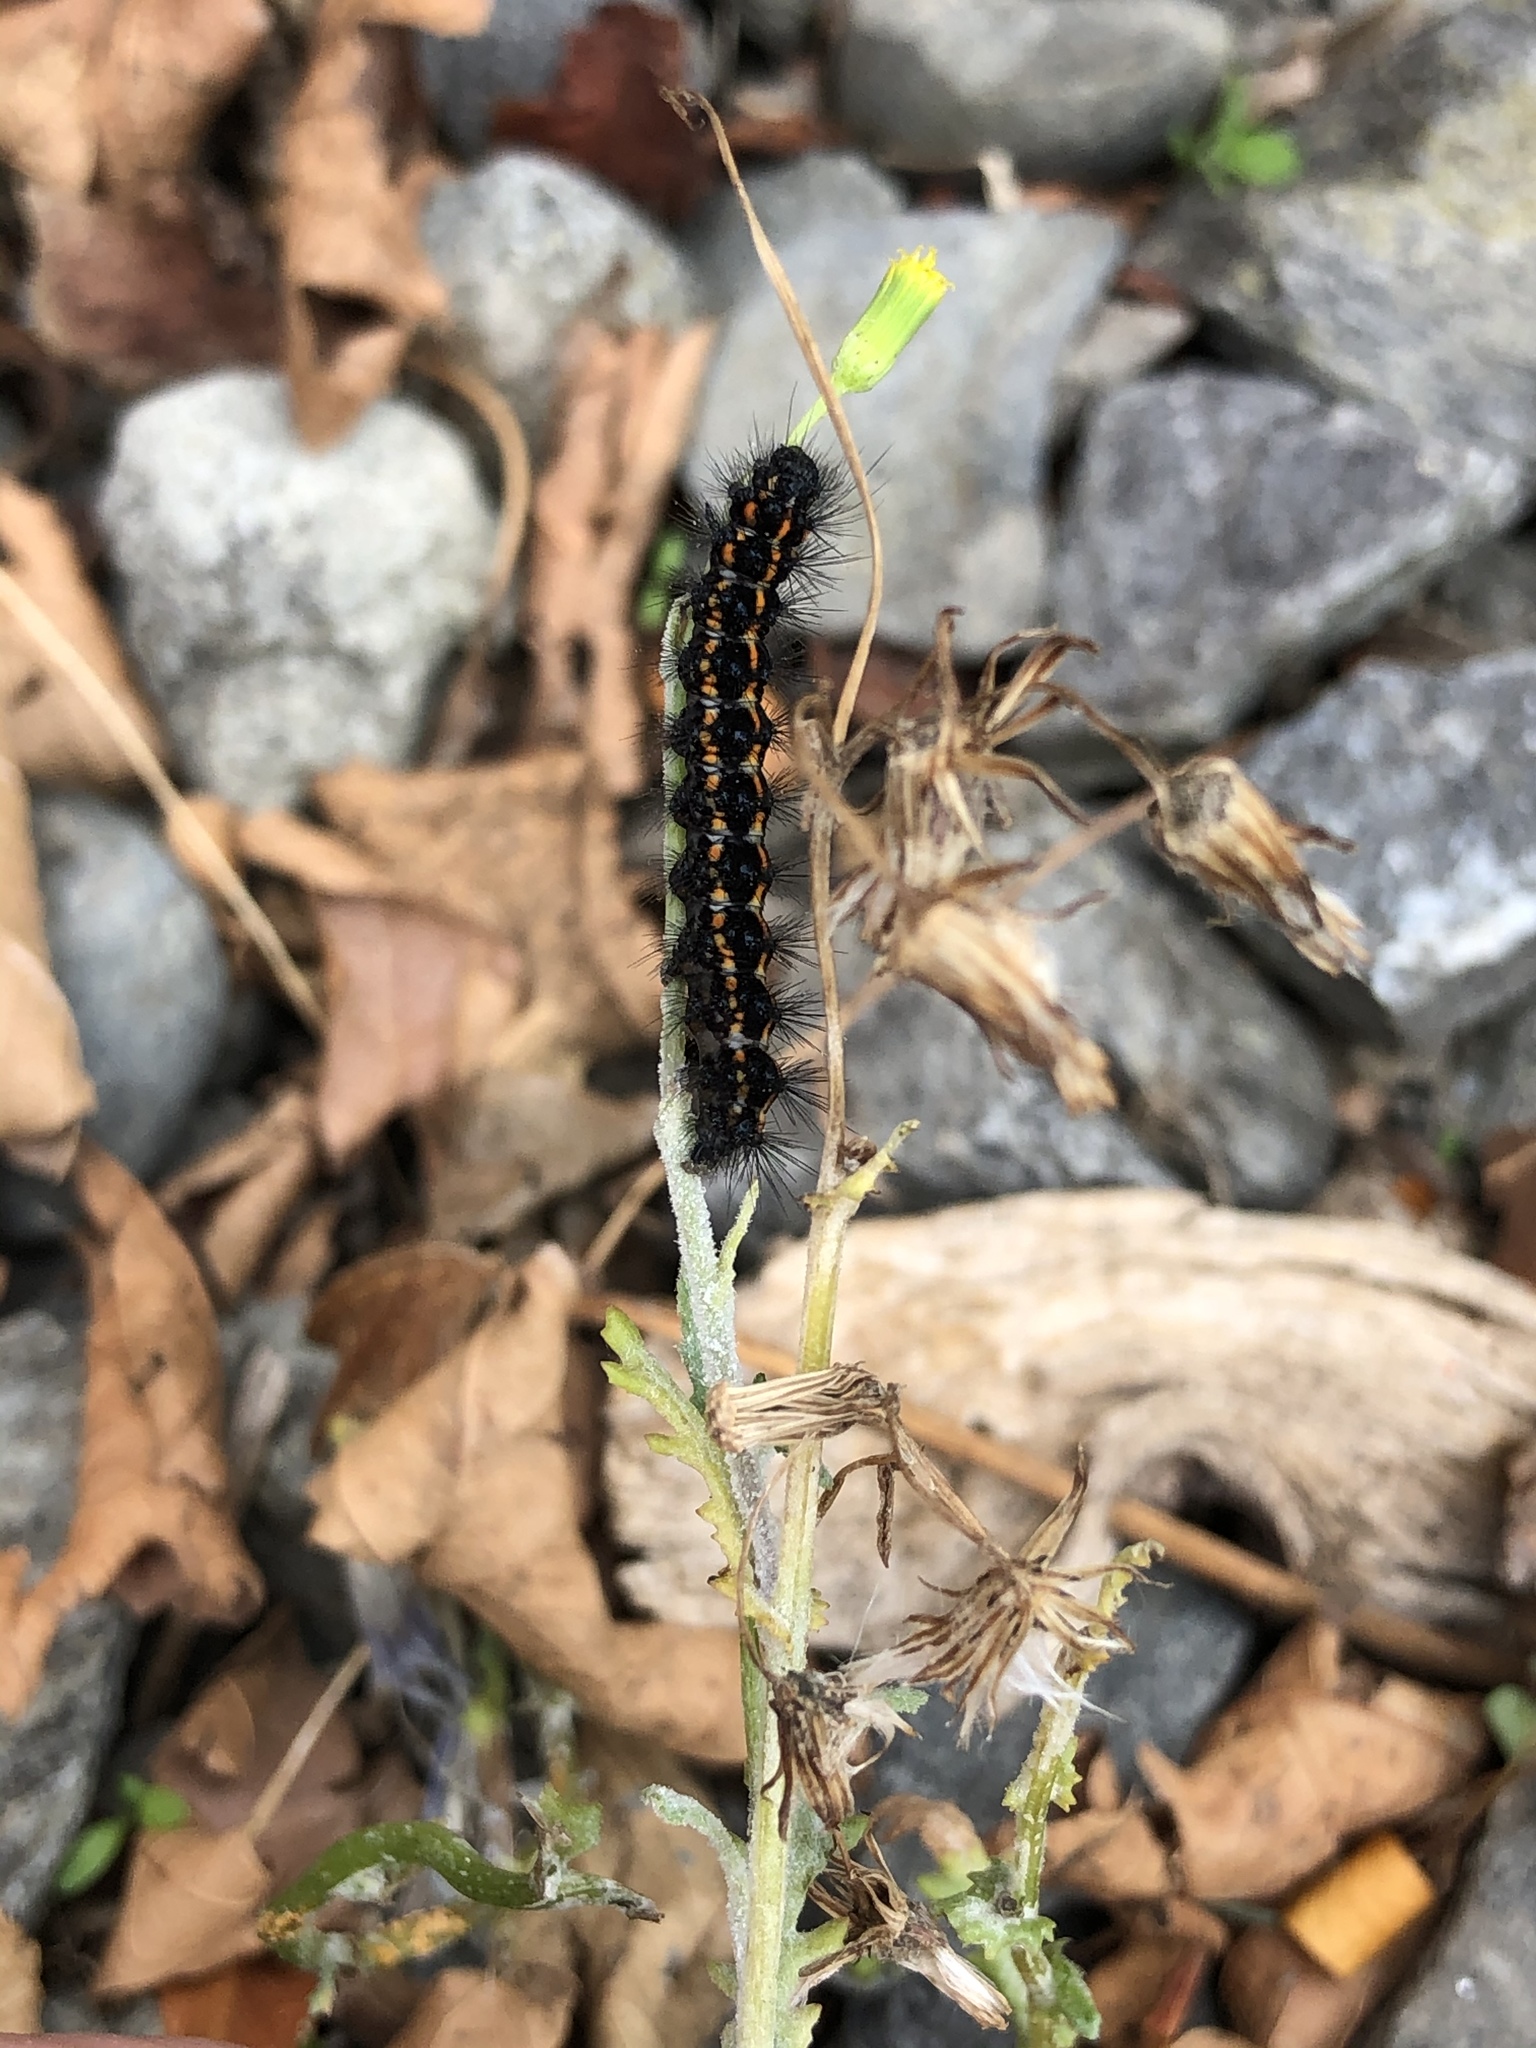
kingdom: Animalia
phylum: Arthropoda
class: Insecta
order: Lepidoptera
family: Erebidae
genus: Nyctemera
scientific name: Nyctemera annulatum
